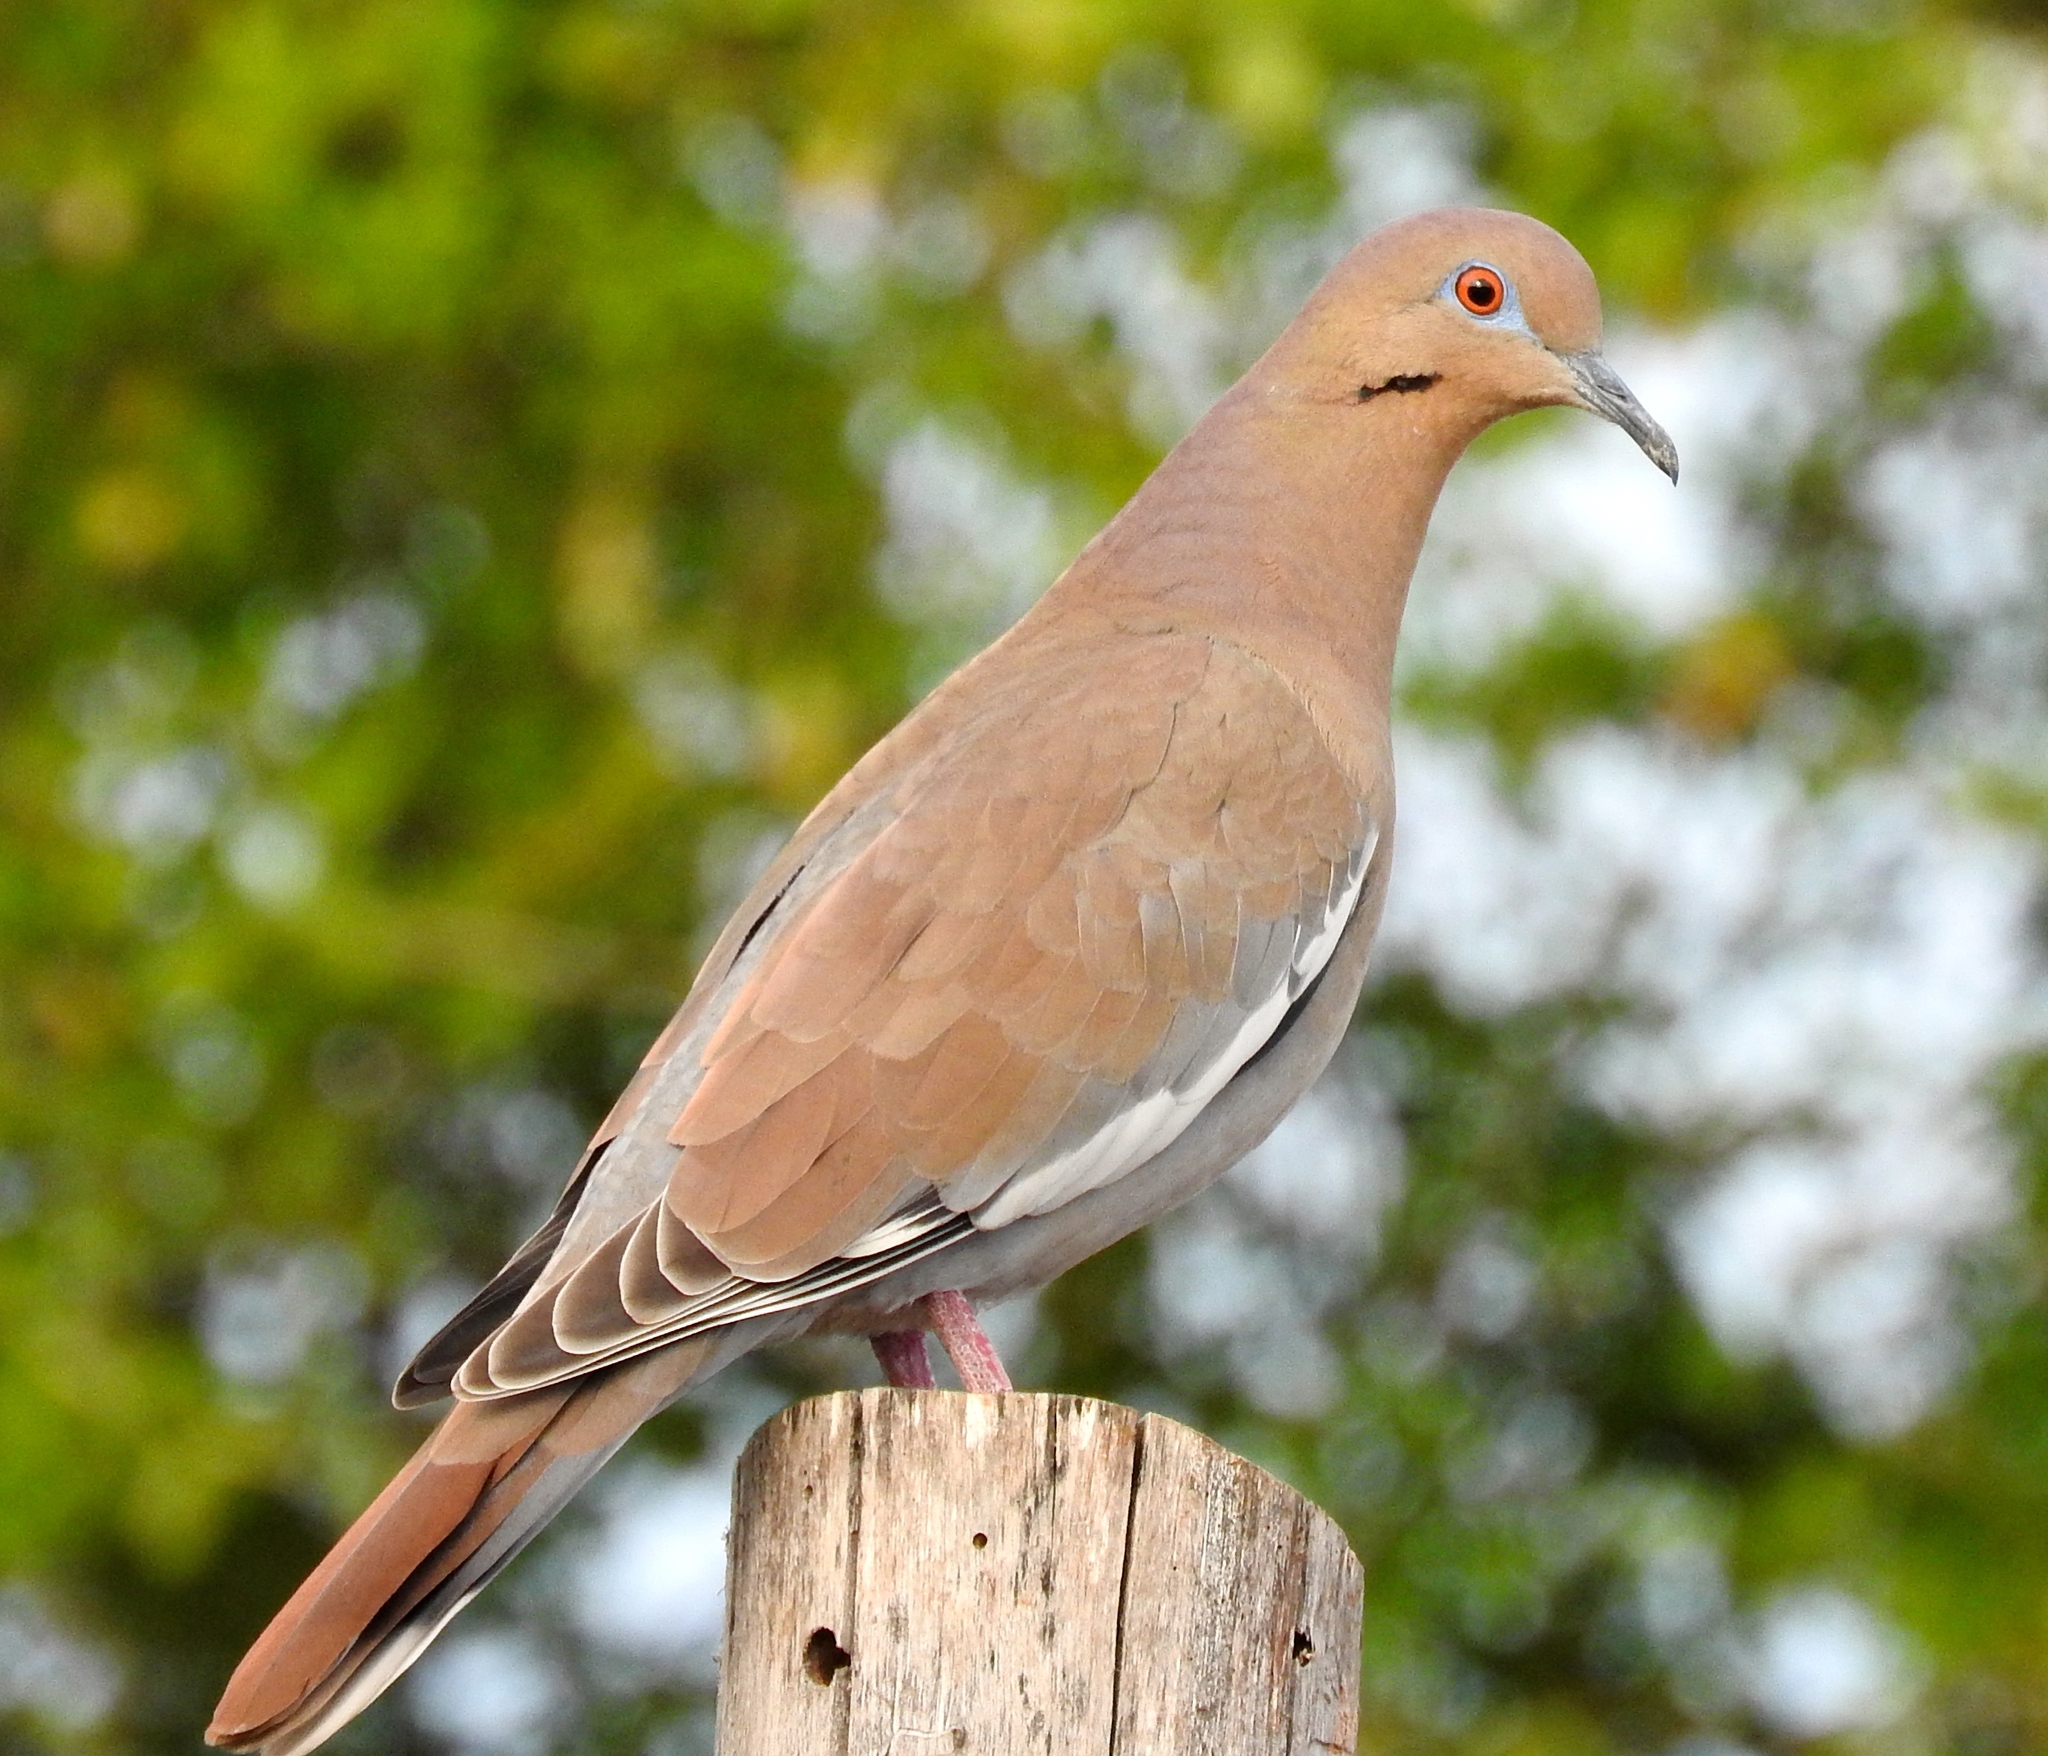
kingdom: Animalia
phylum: Chordata
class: Aves
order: Columbiformes
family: Columbidae
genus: Zenaida
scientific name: Zenaida asiatica
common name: White-winged dove
